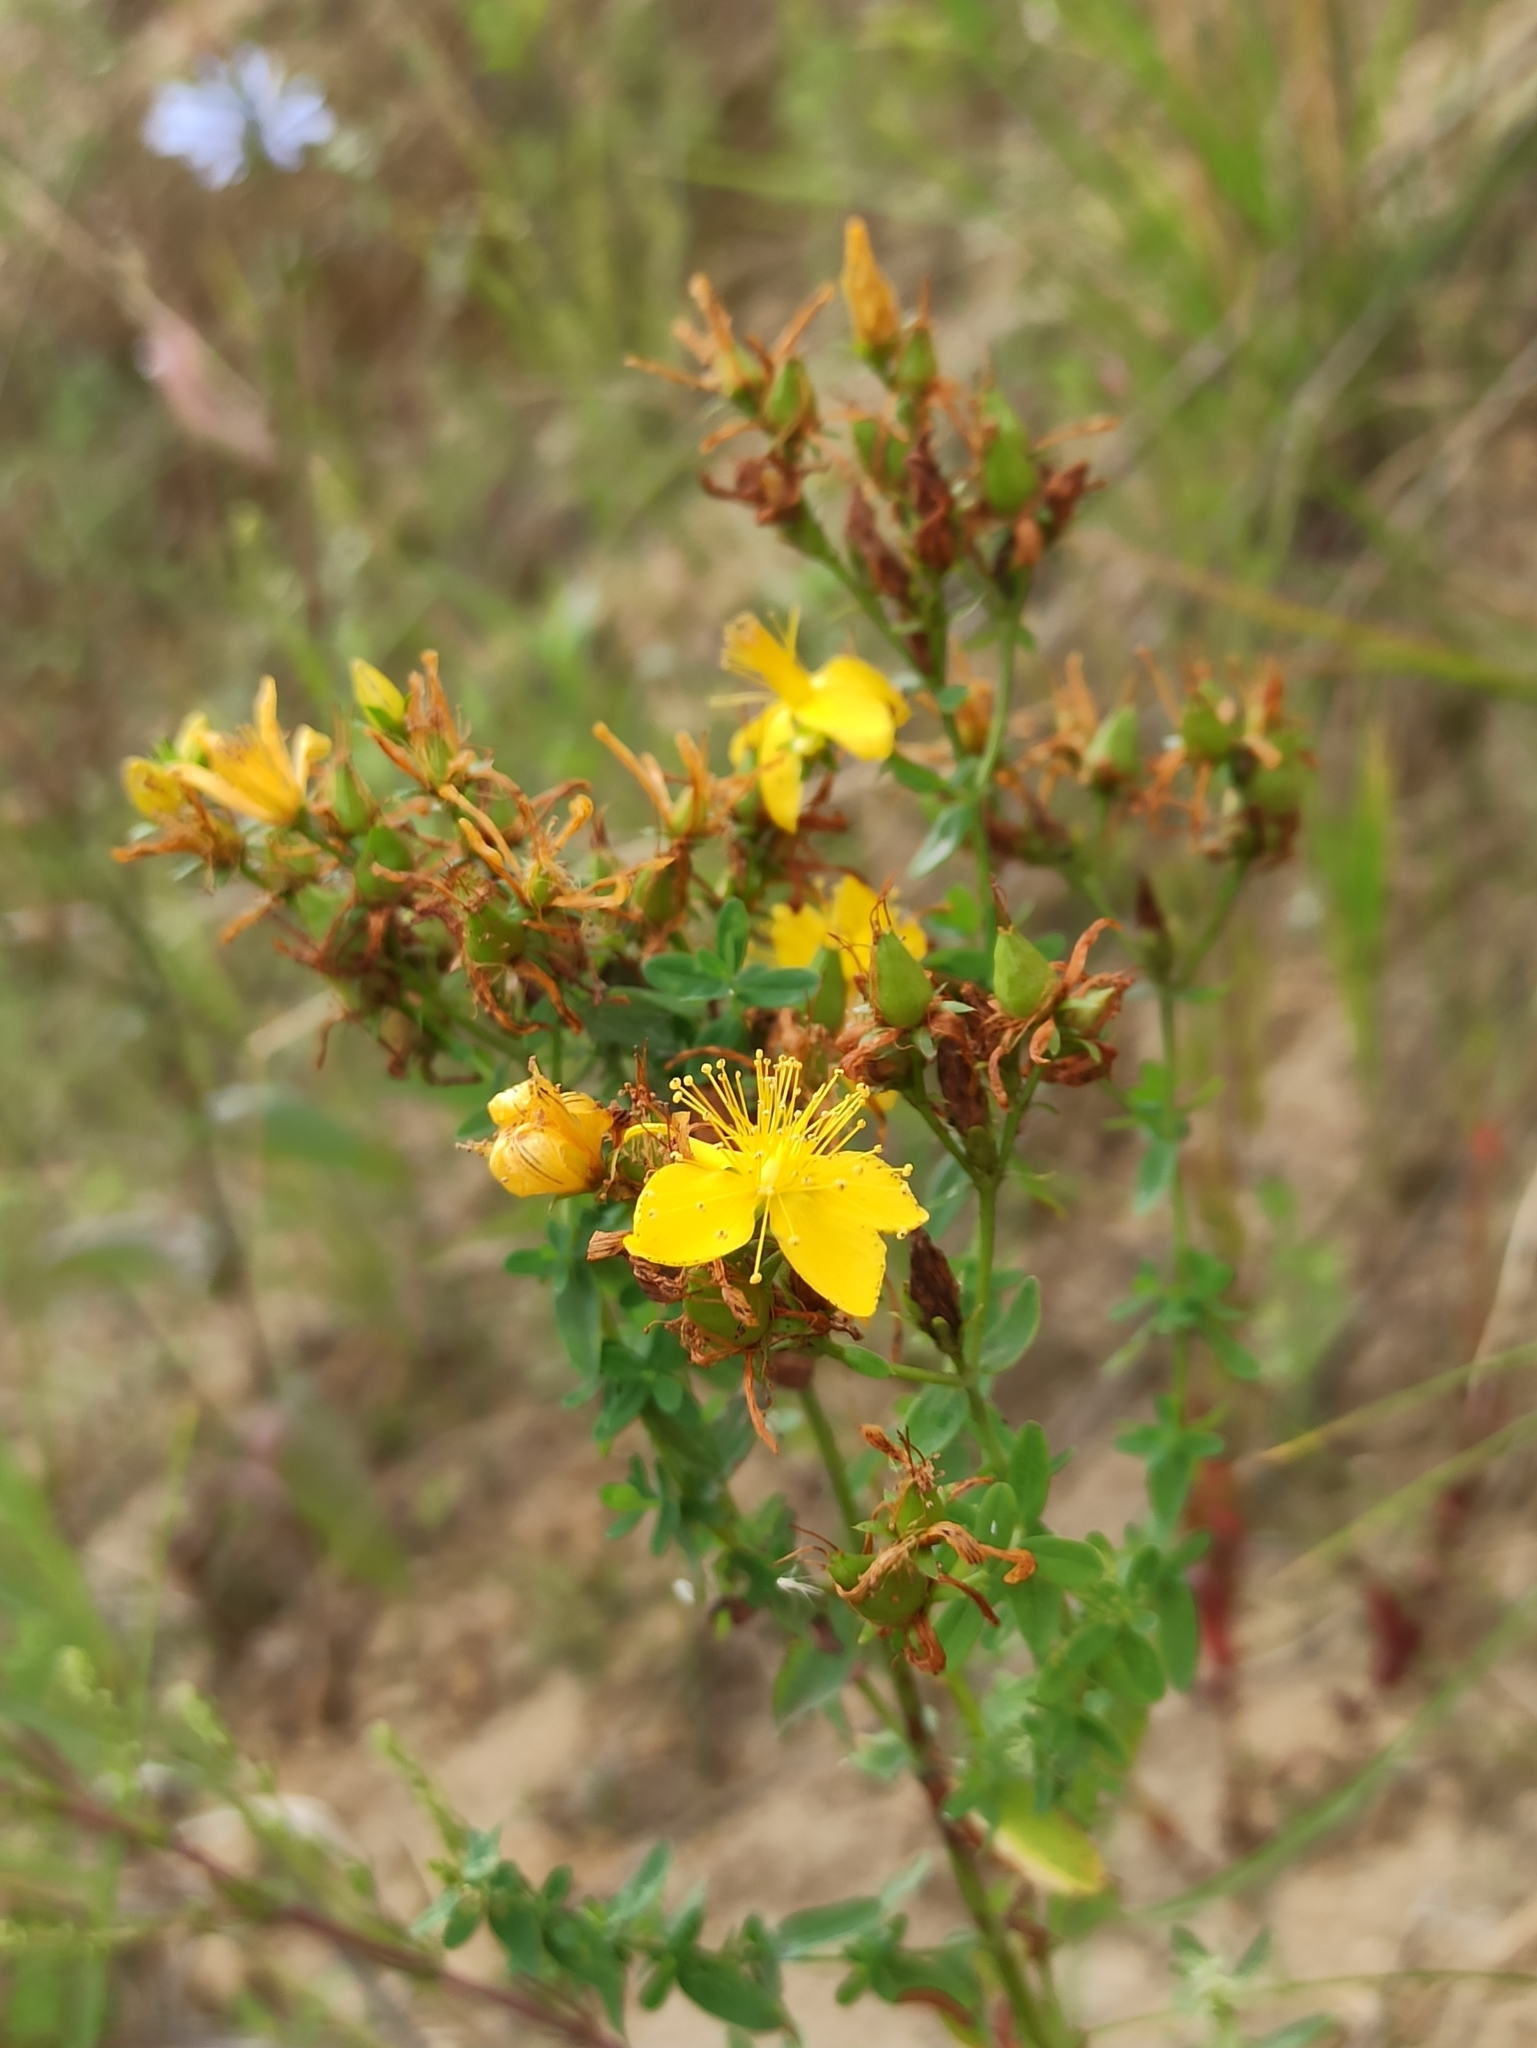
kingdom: Plantae
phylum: Tracheophyta
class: Magnoliopsida
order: Malpighiales
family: Hypericaceae
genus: Hypericum
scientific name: Hypericum perforatum
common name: Common st. johnswort
